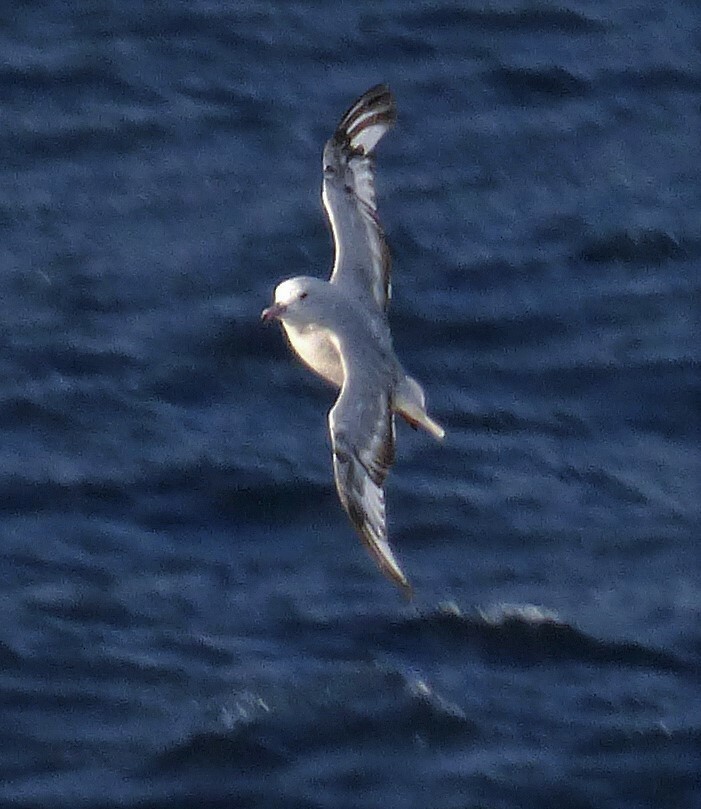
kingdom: Animalia
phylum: Chordata
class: Aves
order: Procellariiformes
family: Procellariidae
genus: Fulmarus
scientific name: Fulmarus glacialoides
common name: Southern fulmar
